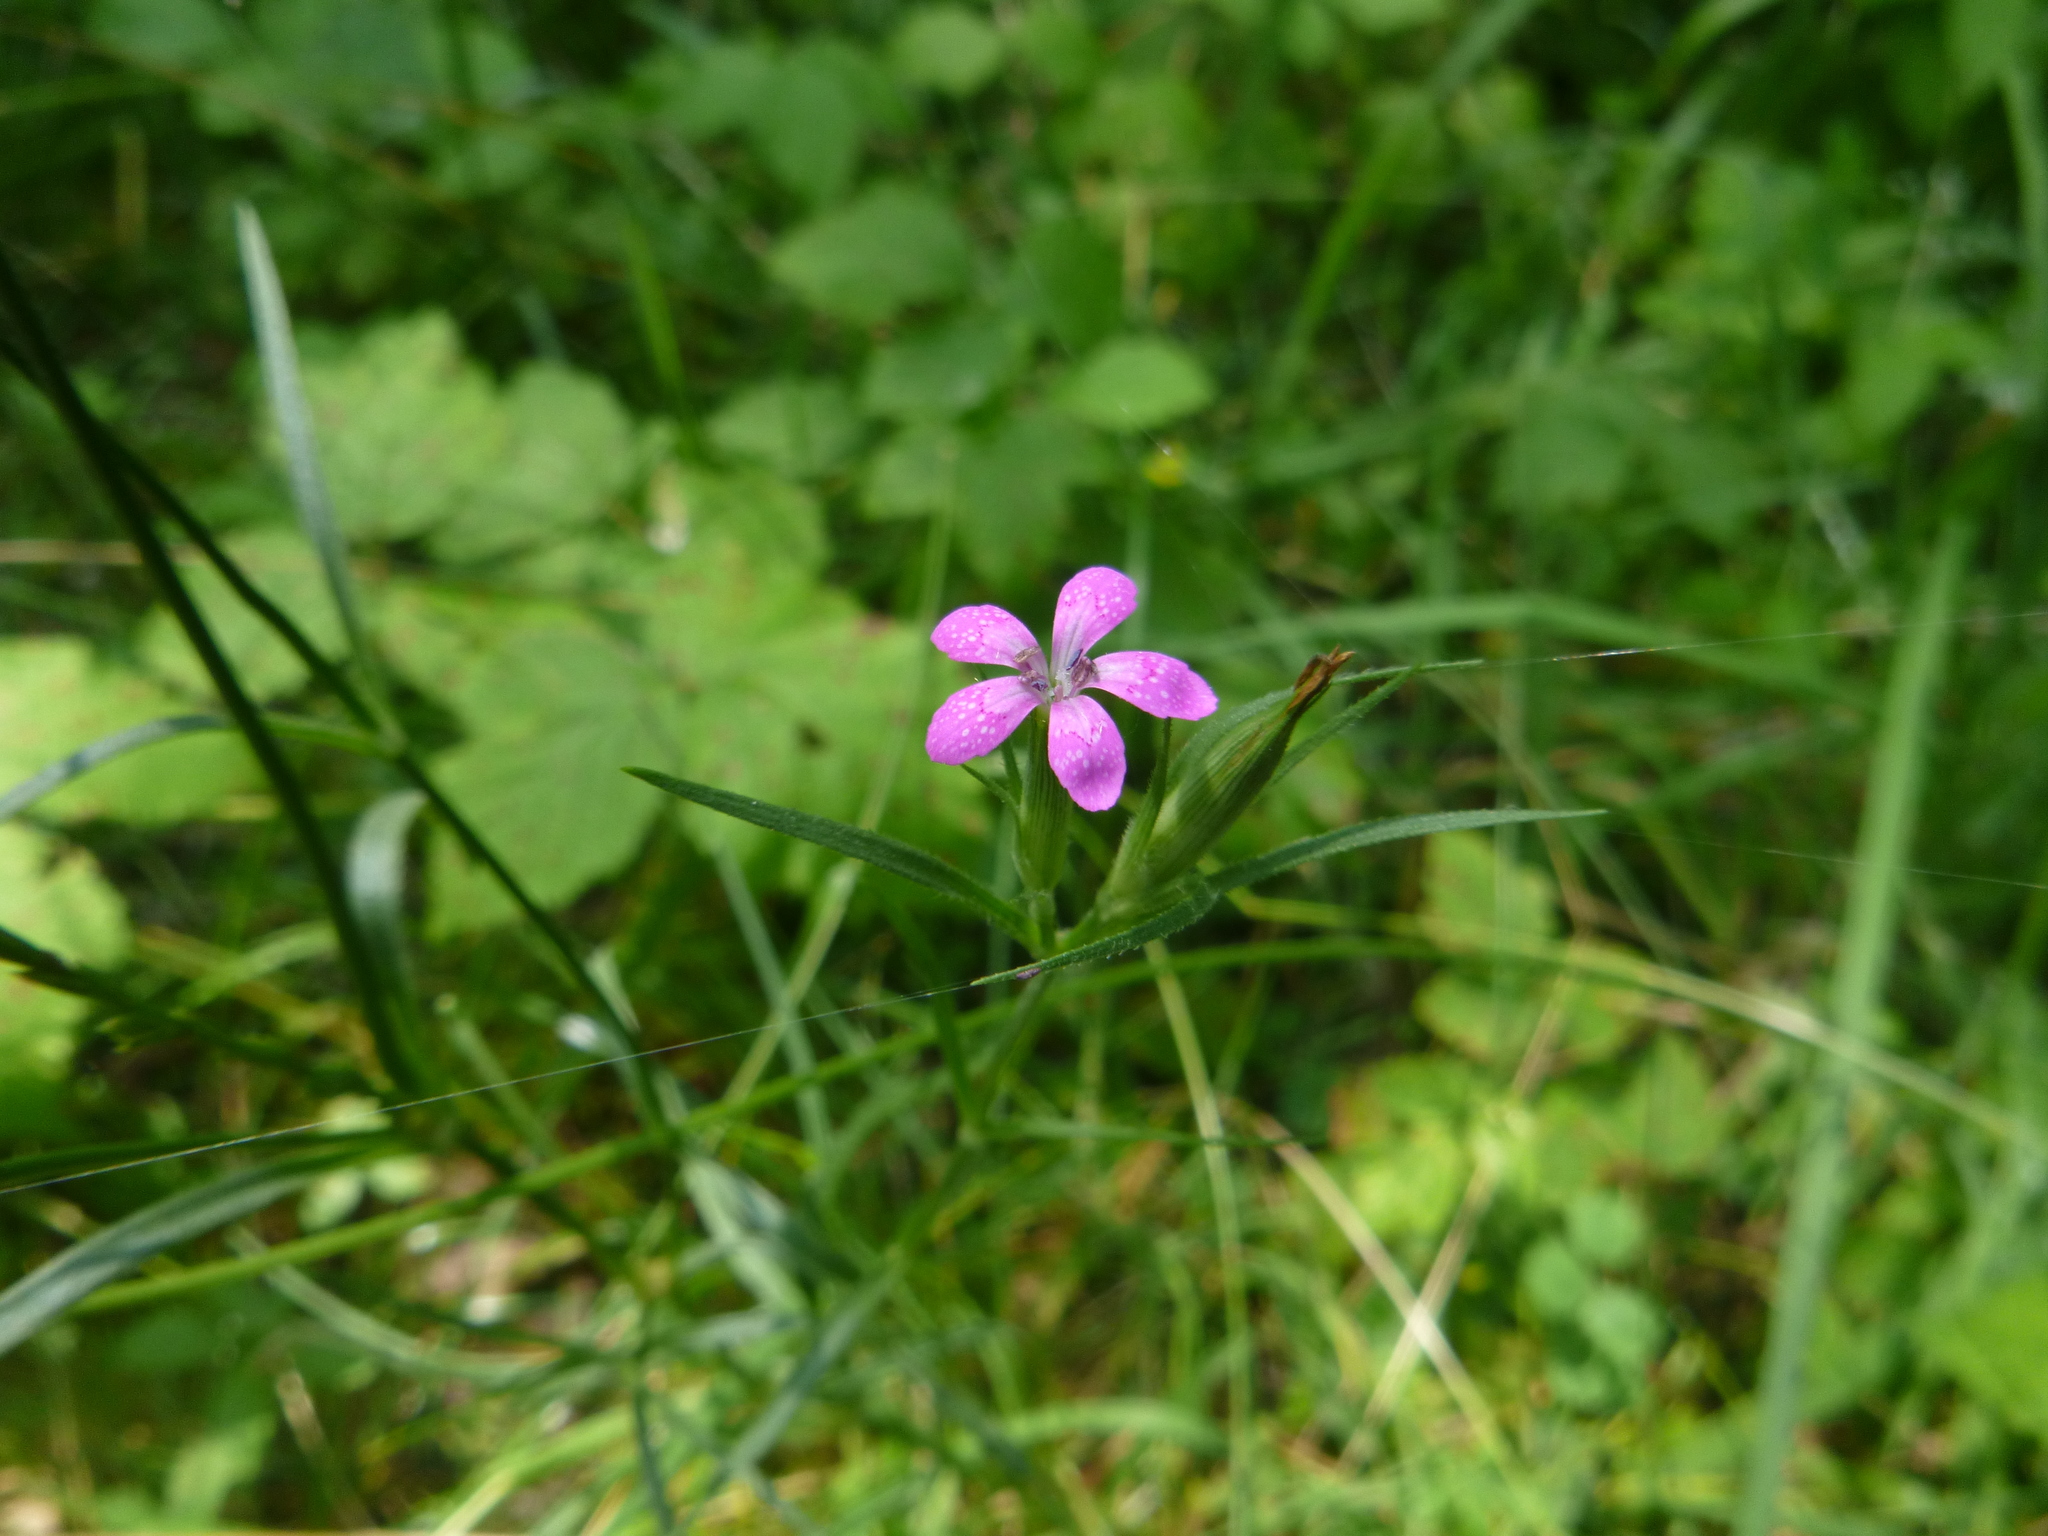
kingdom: Plantae
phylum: Tracheophyta
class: Magnoliopsida
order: Caryophyllales
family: Caryophyllaceae
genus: Dianthus
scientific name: Dianthus armeria
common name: Deptford pink
